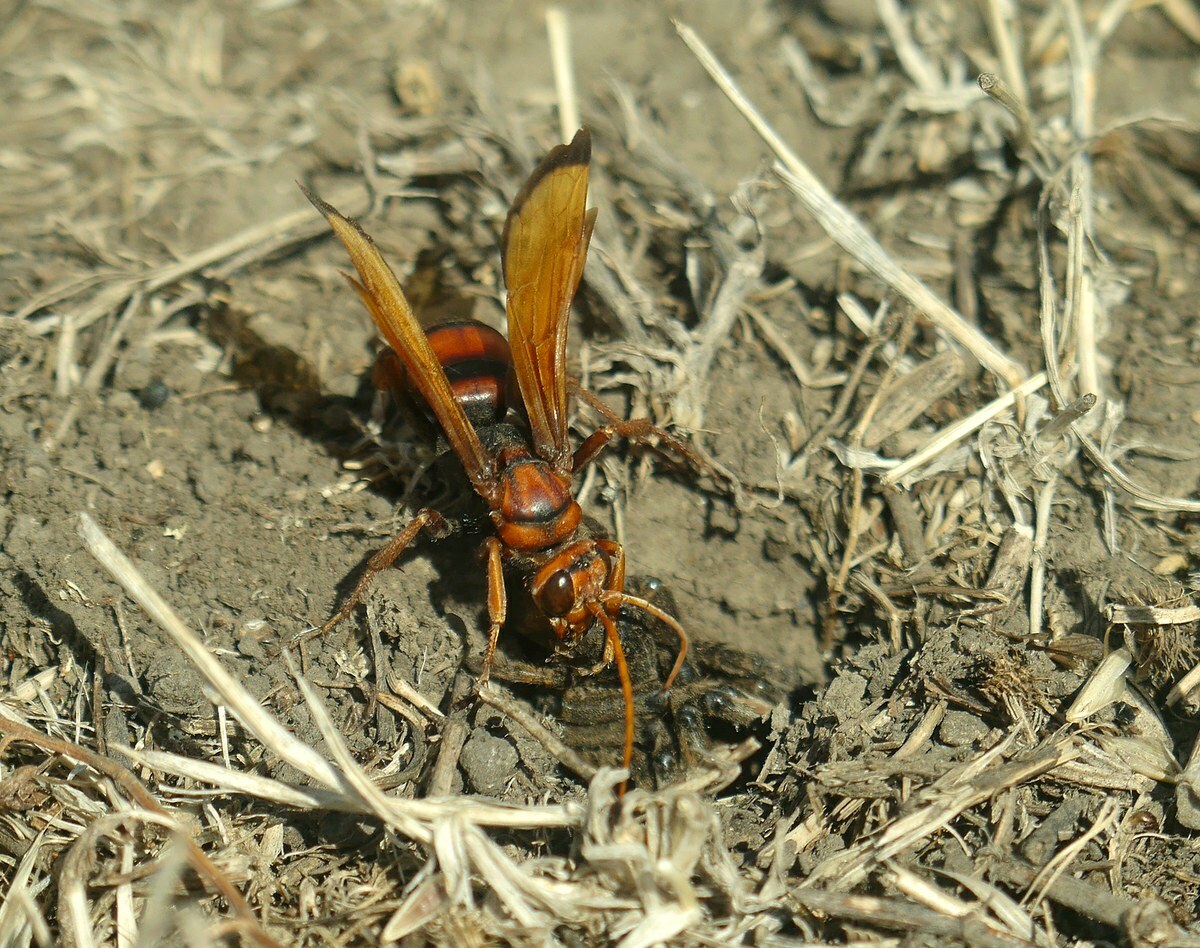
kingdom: Animalia
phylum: Arthropoda
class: Insecta
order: Hymenoptera
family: Pompilidae
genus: Cryptocheilus
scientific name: Cryptocheilus rubellus
